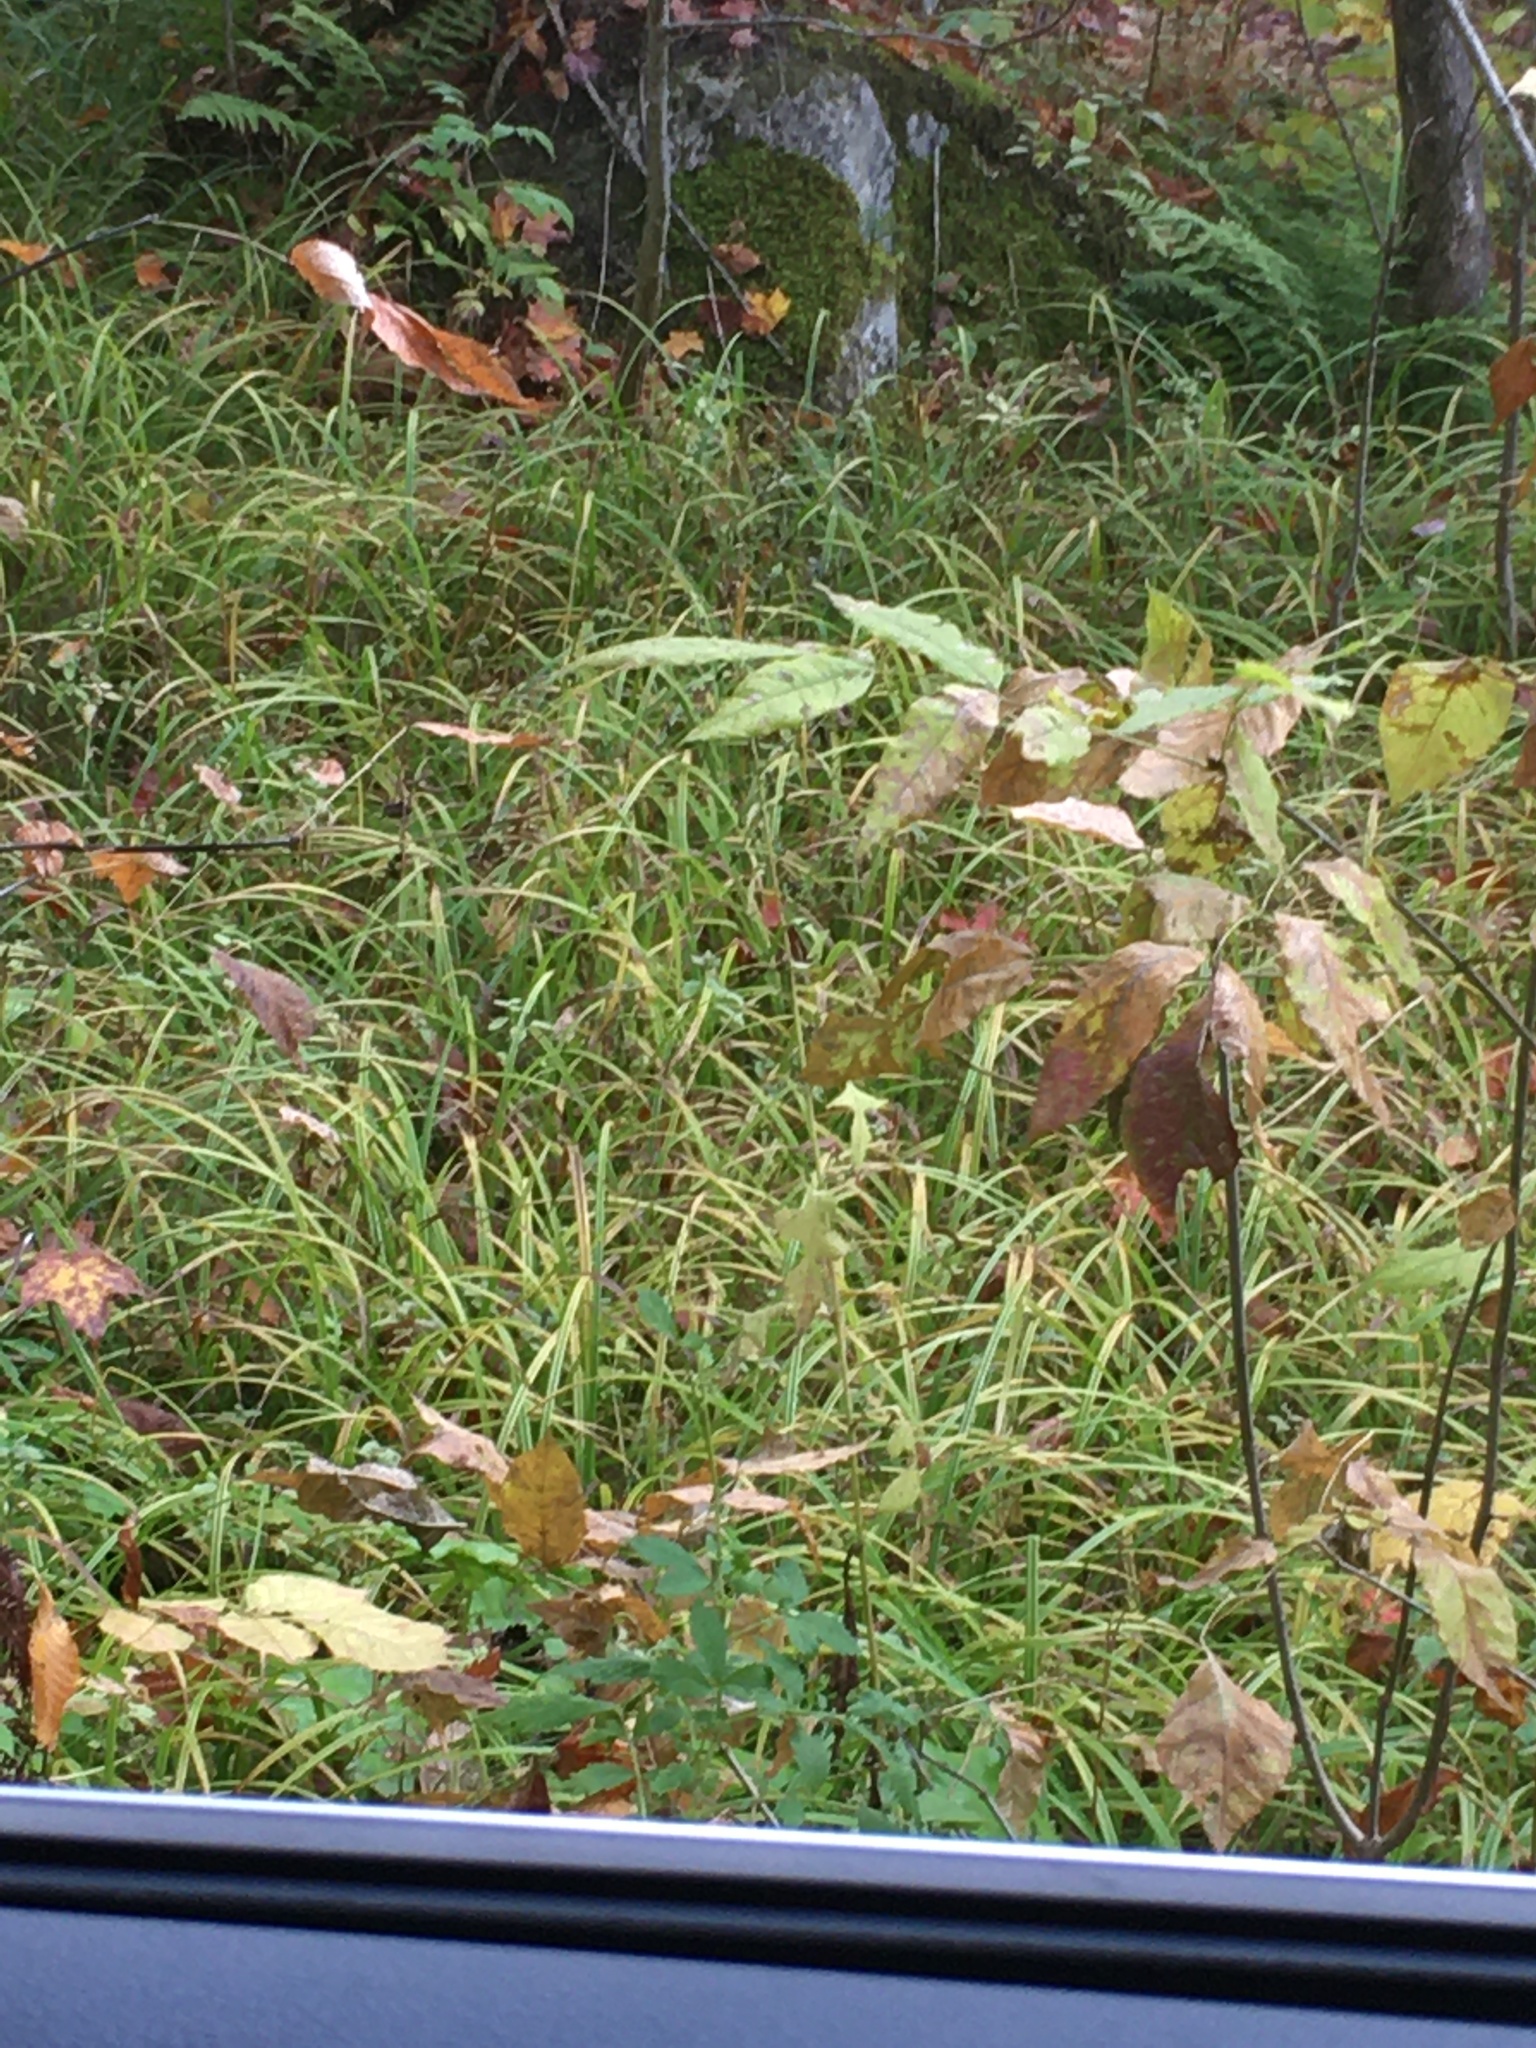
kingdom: Plantae
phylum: Tracheophyta
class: Liliopsida
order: Poales
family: Cyperaceae
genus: Carex
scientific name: Carex scabrata
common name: Eastern rough sedge
